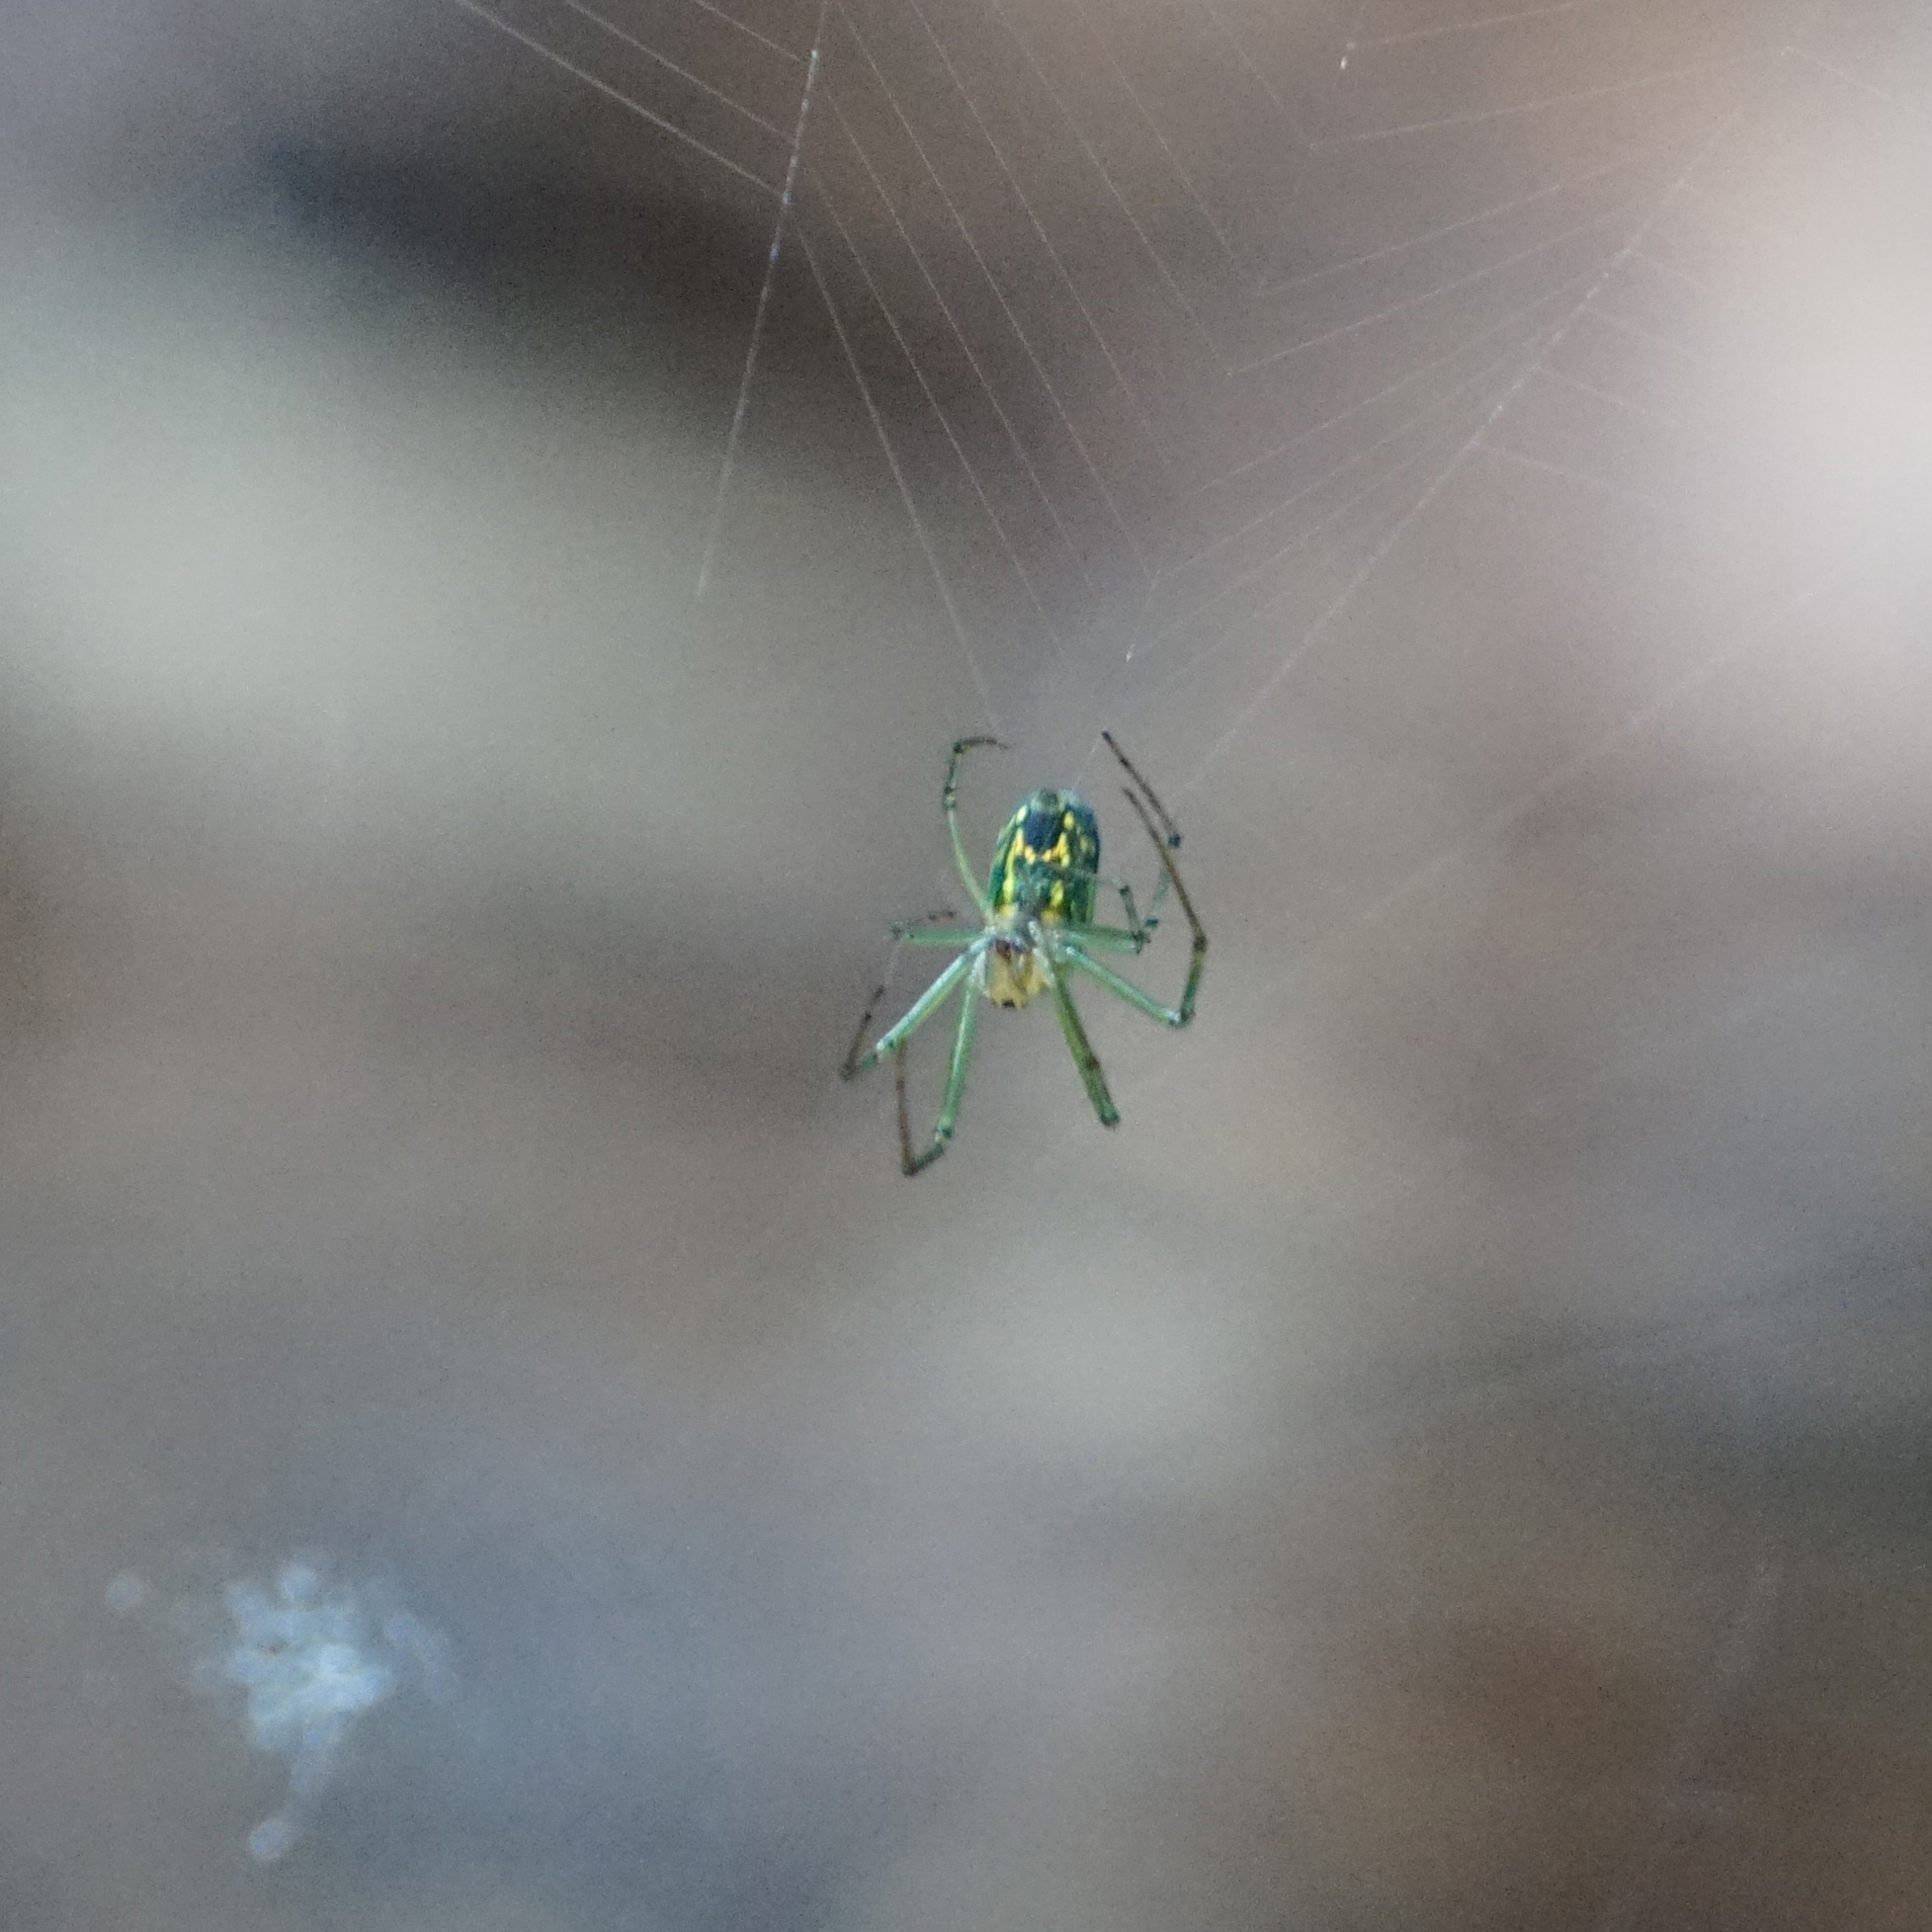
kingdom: Animalia
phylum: Arthropoda
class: Arachnida
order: Araneae
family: Tetragnathidae
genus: Leucauge
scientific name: Leucauge venusta
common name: Longjawed orb weavers
